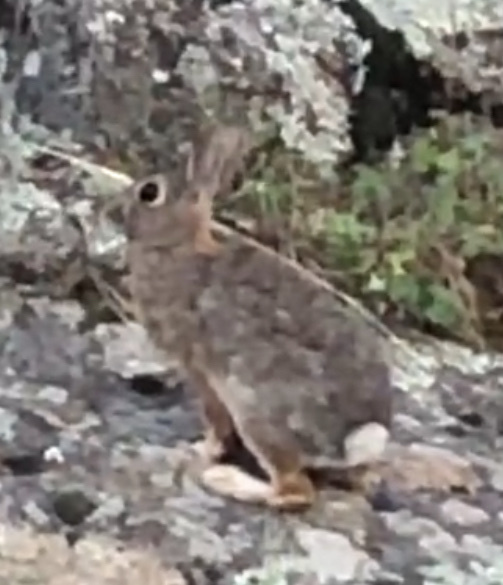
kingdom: Animalia
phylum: Chordata
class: Mammalia
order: Lagomorpha
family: Leporidae
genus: Sylvilagus
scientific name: Sylvilagus nuttallii
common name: Mountain cottontail
